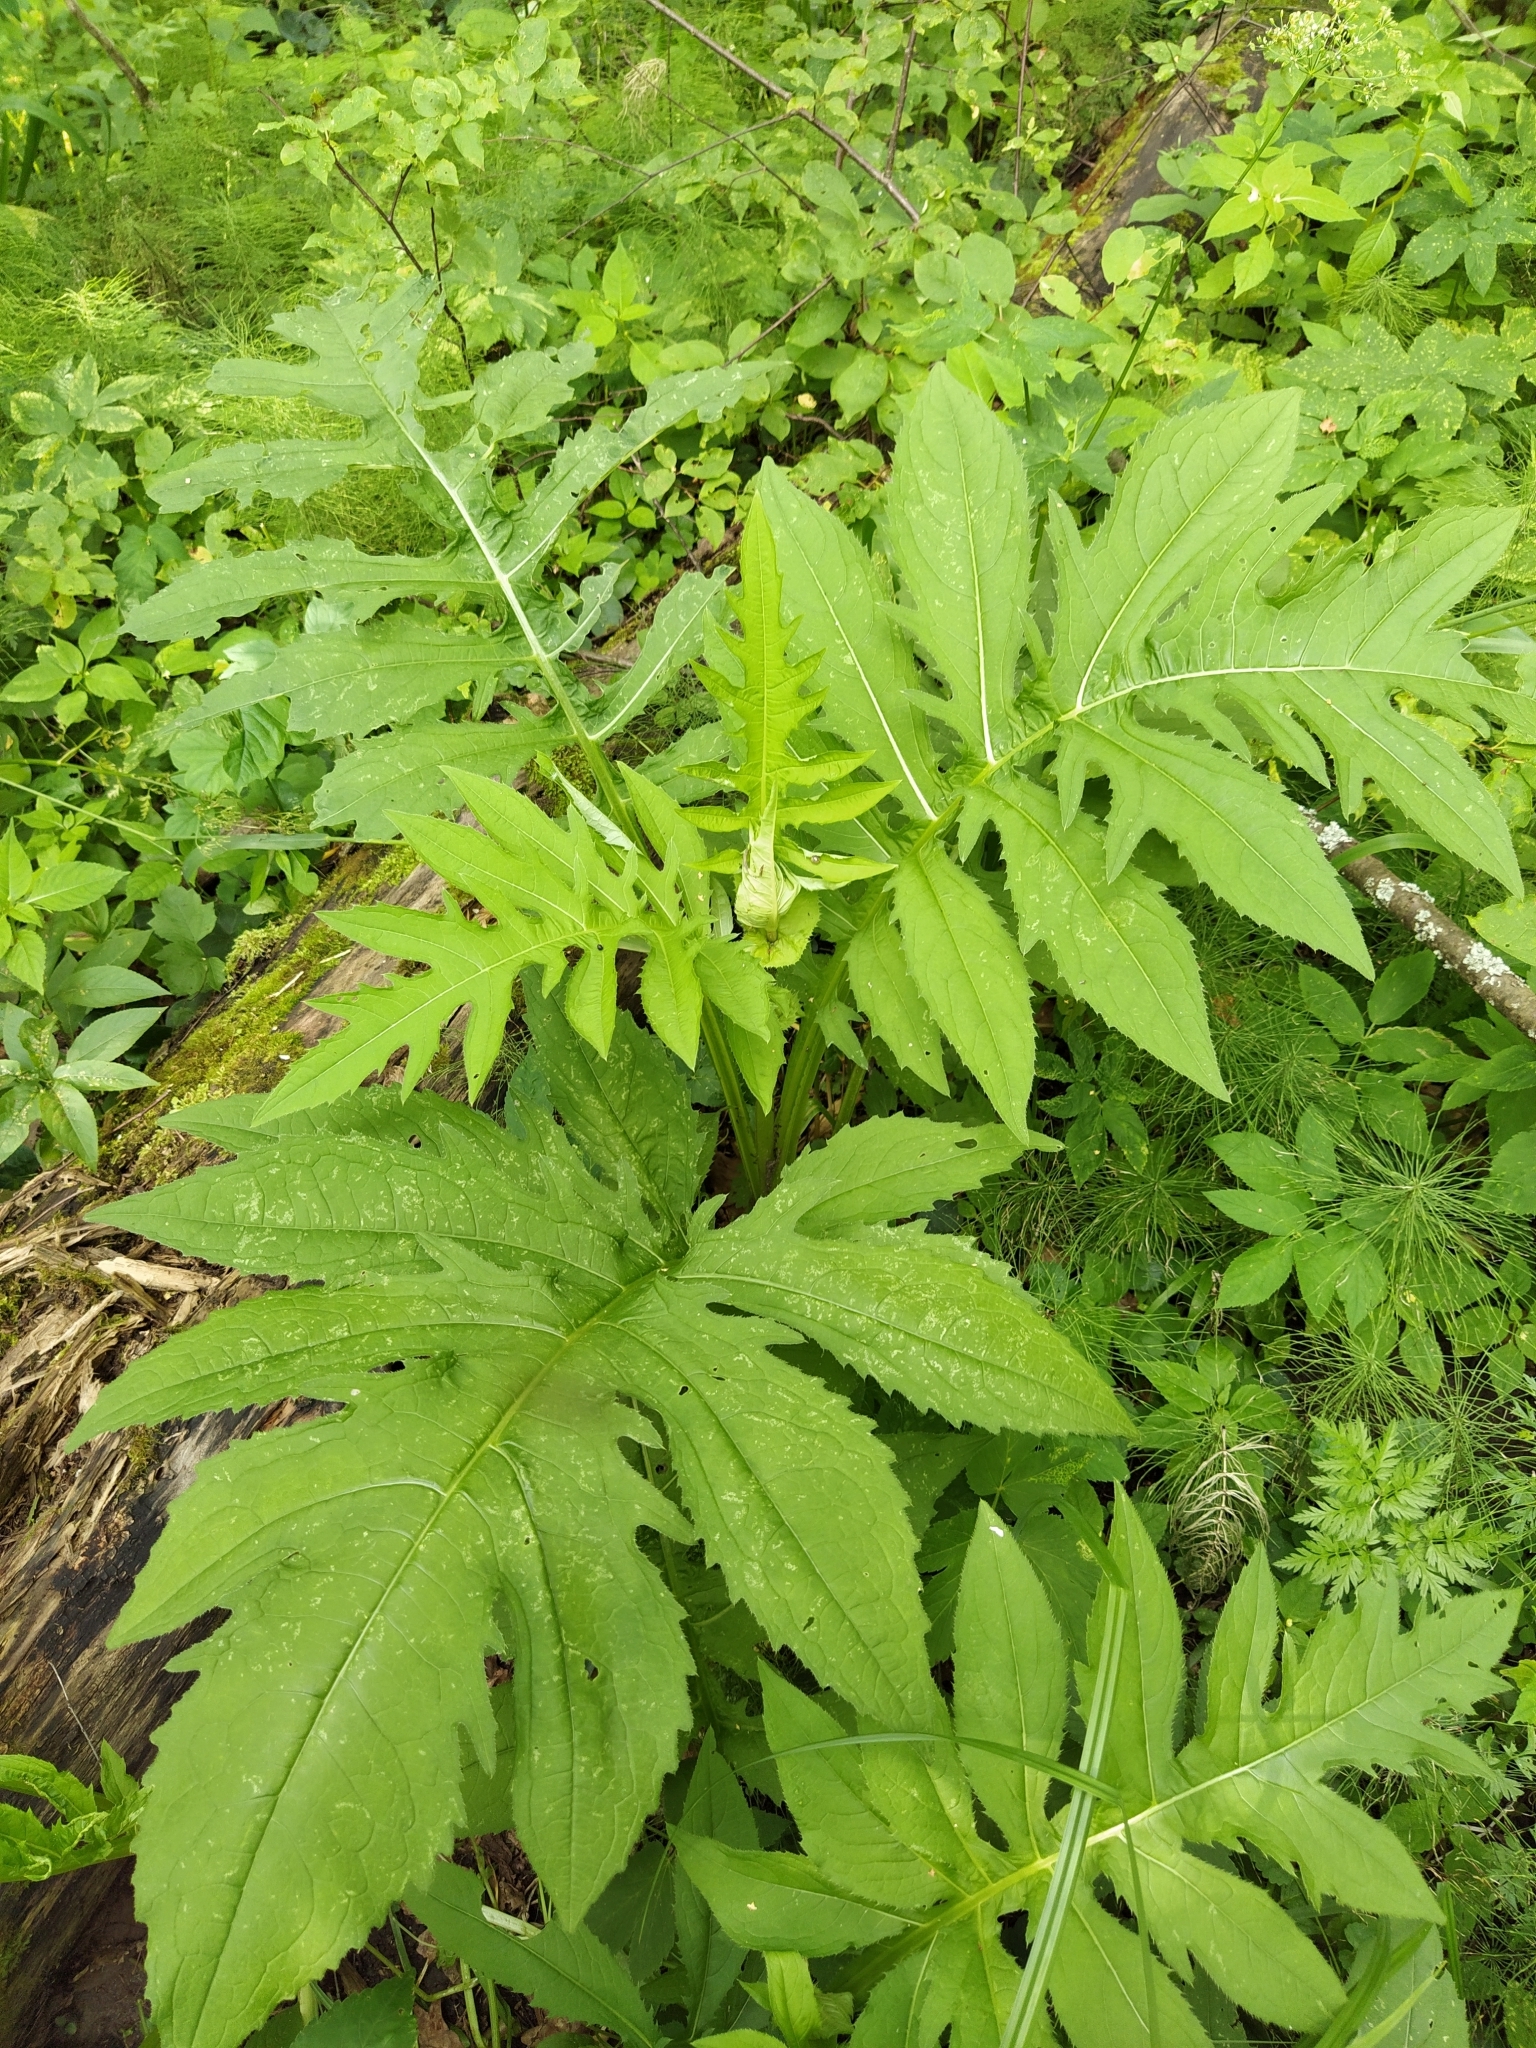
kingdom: Plantae
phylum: Tracheophyta
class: Magnoliopsida
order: Asterales
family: Asteraceae
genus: Cirsium
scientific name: Cirsium oleraceum
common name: Cabbage thistle
